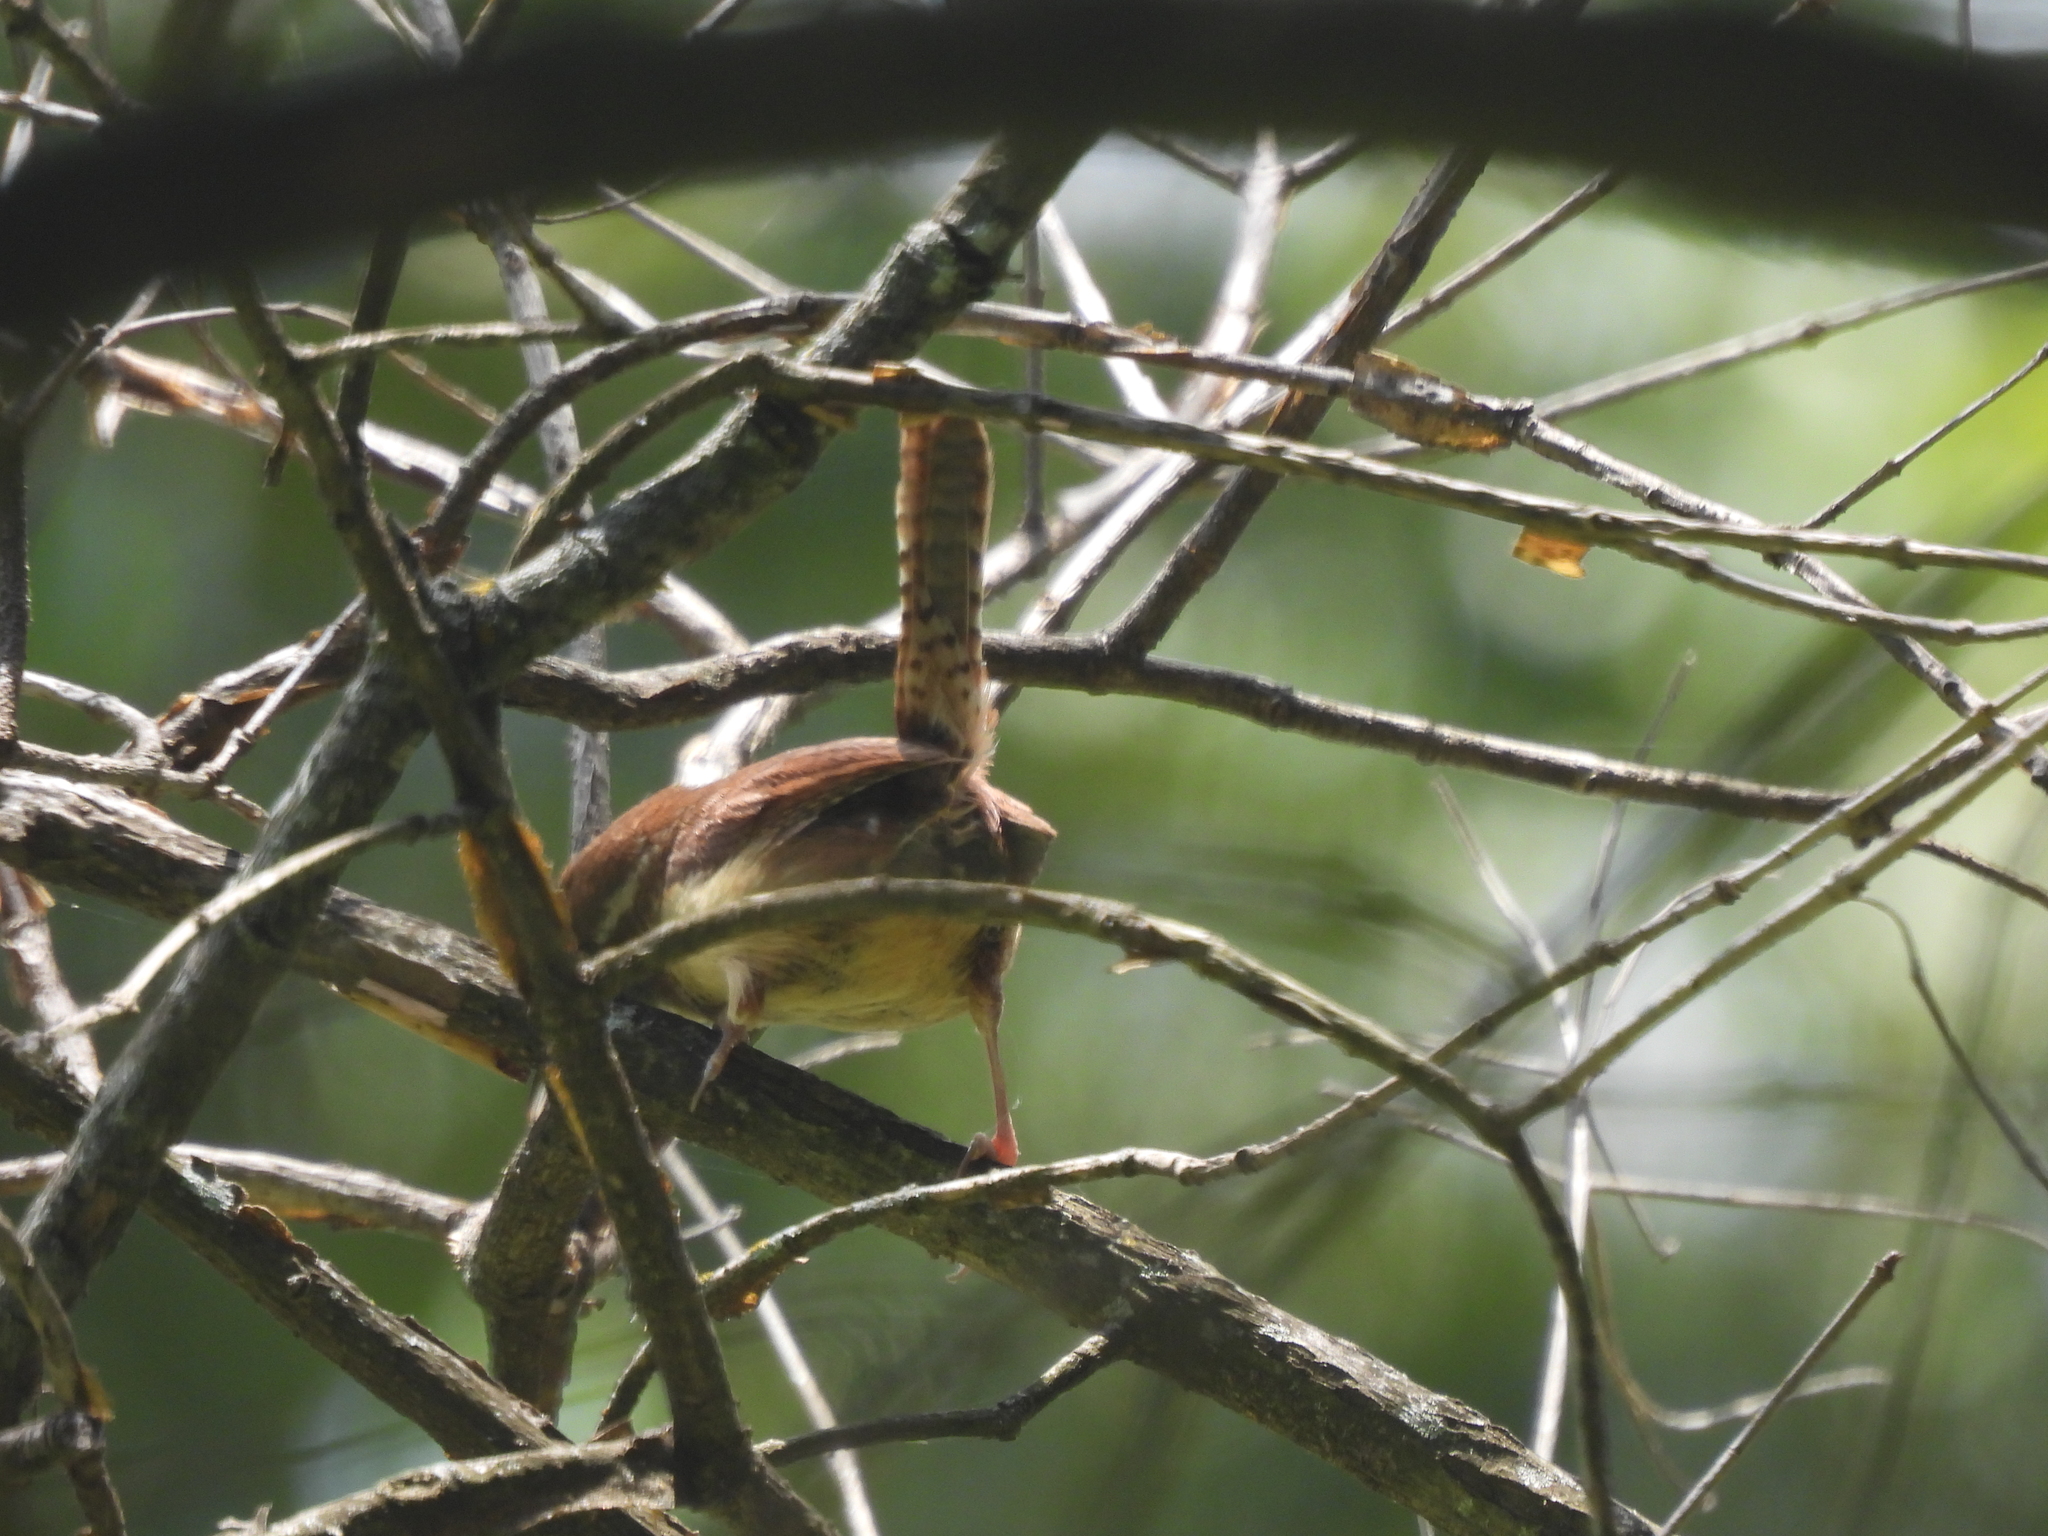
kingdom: Animalia
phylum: Chordata
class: Aves
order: Passeriformes
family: Troglodytidae
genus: Thryothorus
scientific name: Thryothorus ludovicianus
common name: Carolina wren
